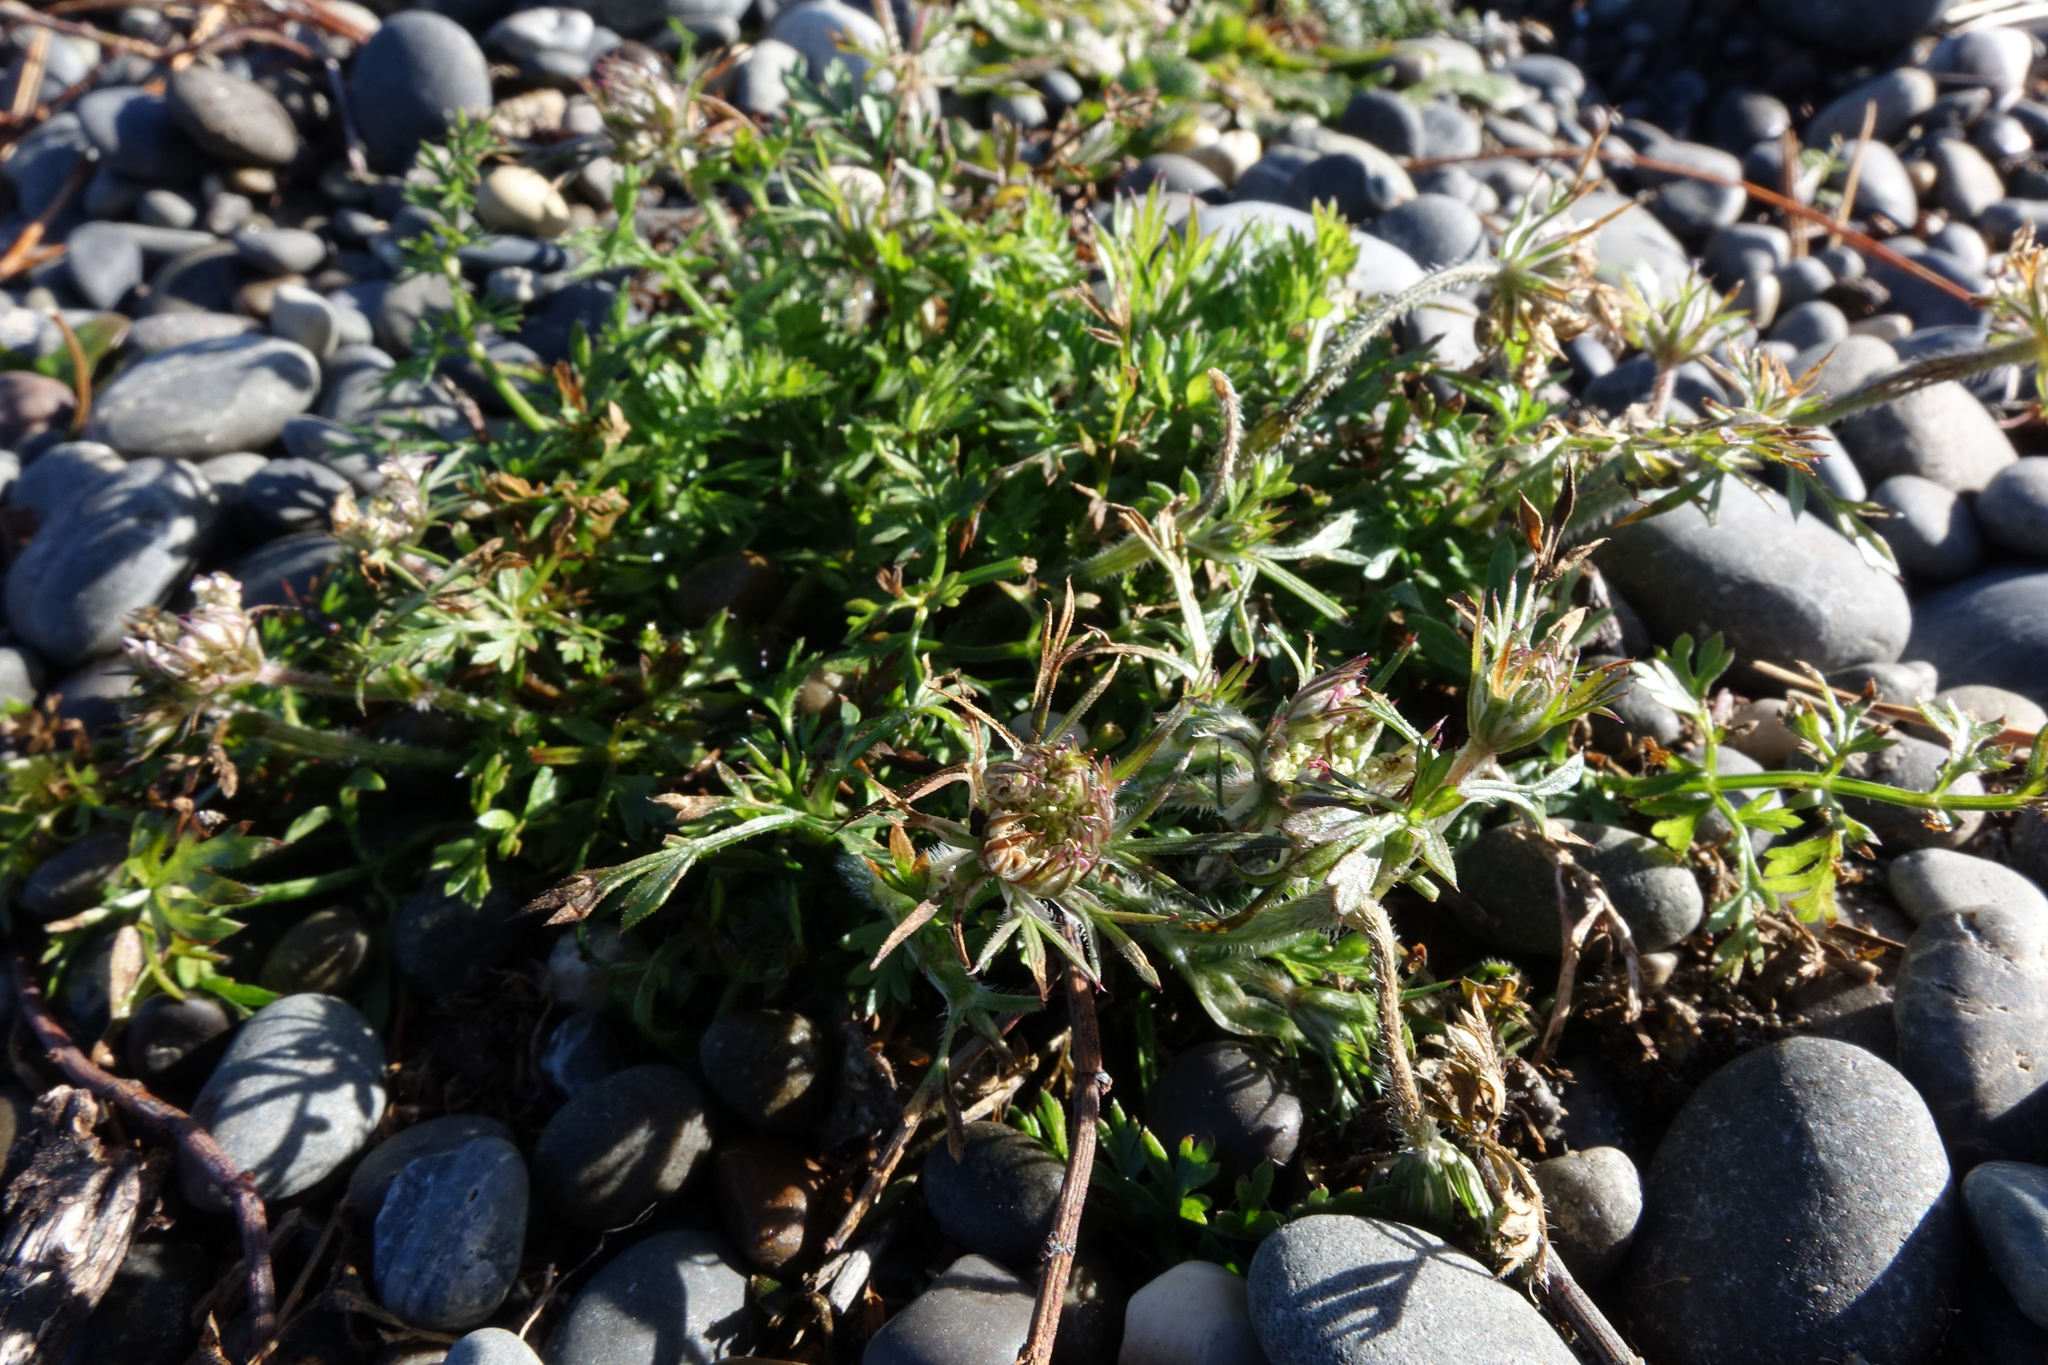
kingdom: Plantae
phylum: Tracheophyta
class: Magnoliopsida
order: Apiales
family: Apiaceae
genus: Daucus
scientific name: Daucus carota
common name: Wild carrot
